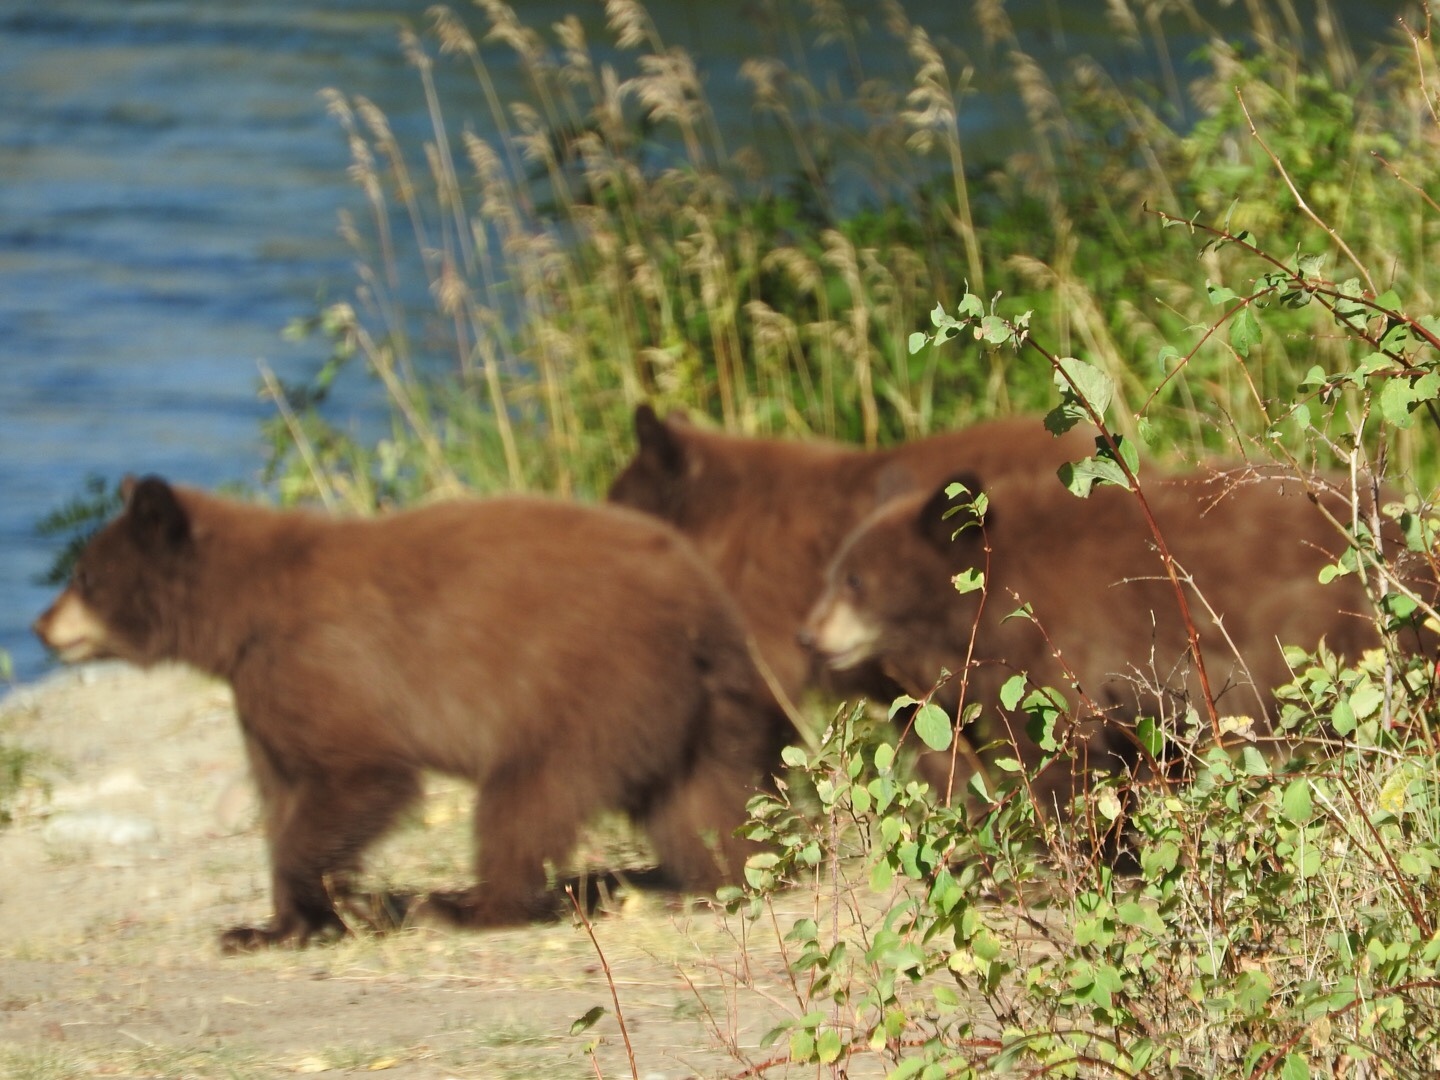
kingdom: Animalia
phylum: Chordata
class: Mammalia
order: Carnivora
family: Ursidae
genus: Ursus
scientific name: Ursus americanus
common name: American black bear
